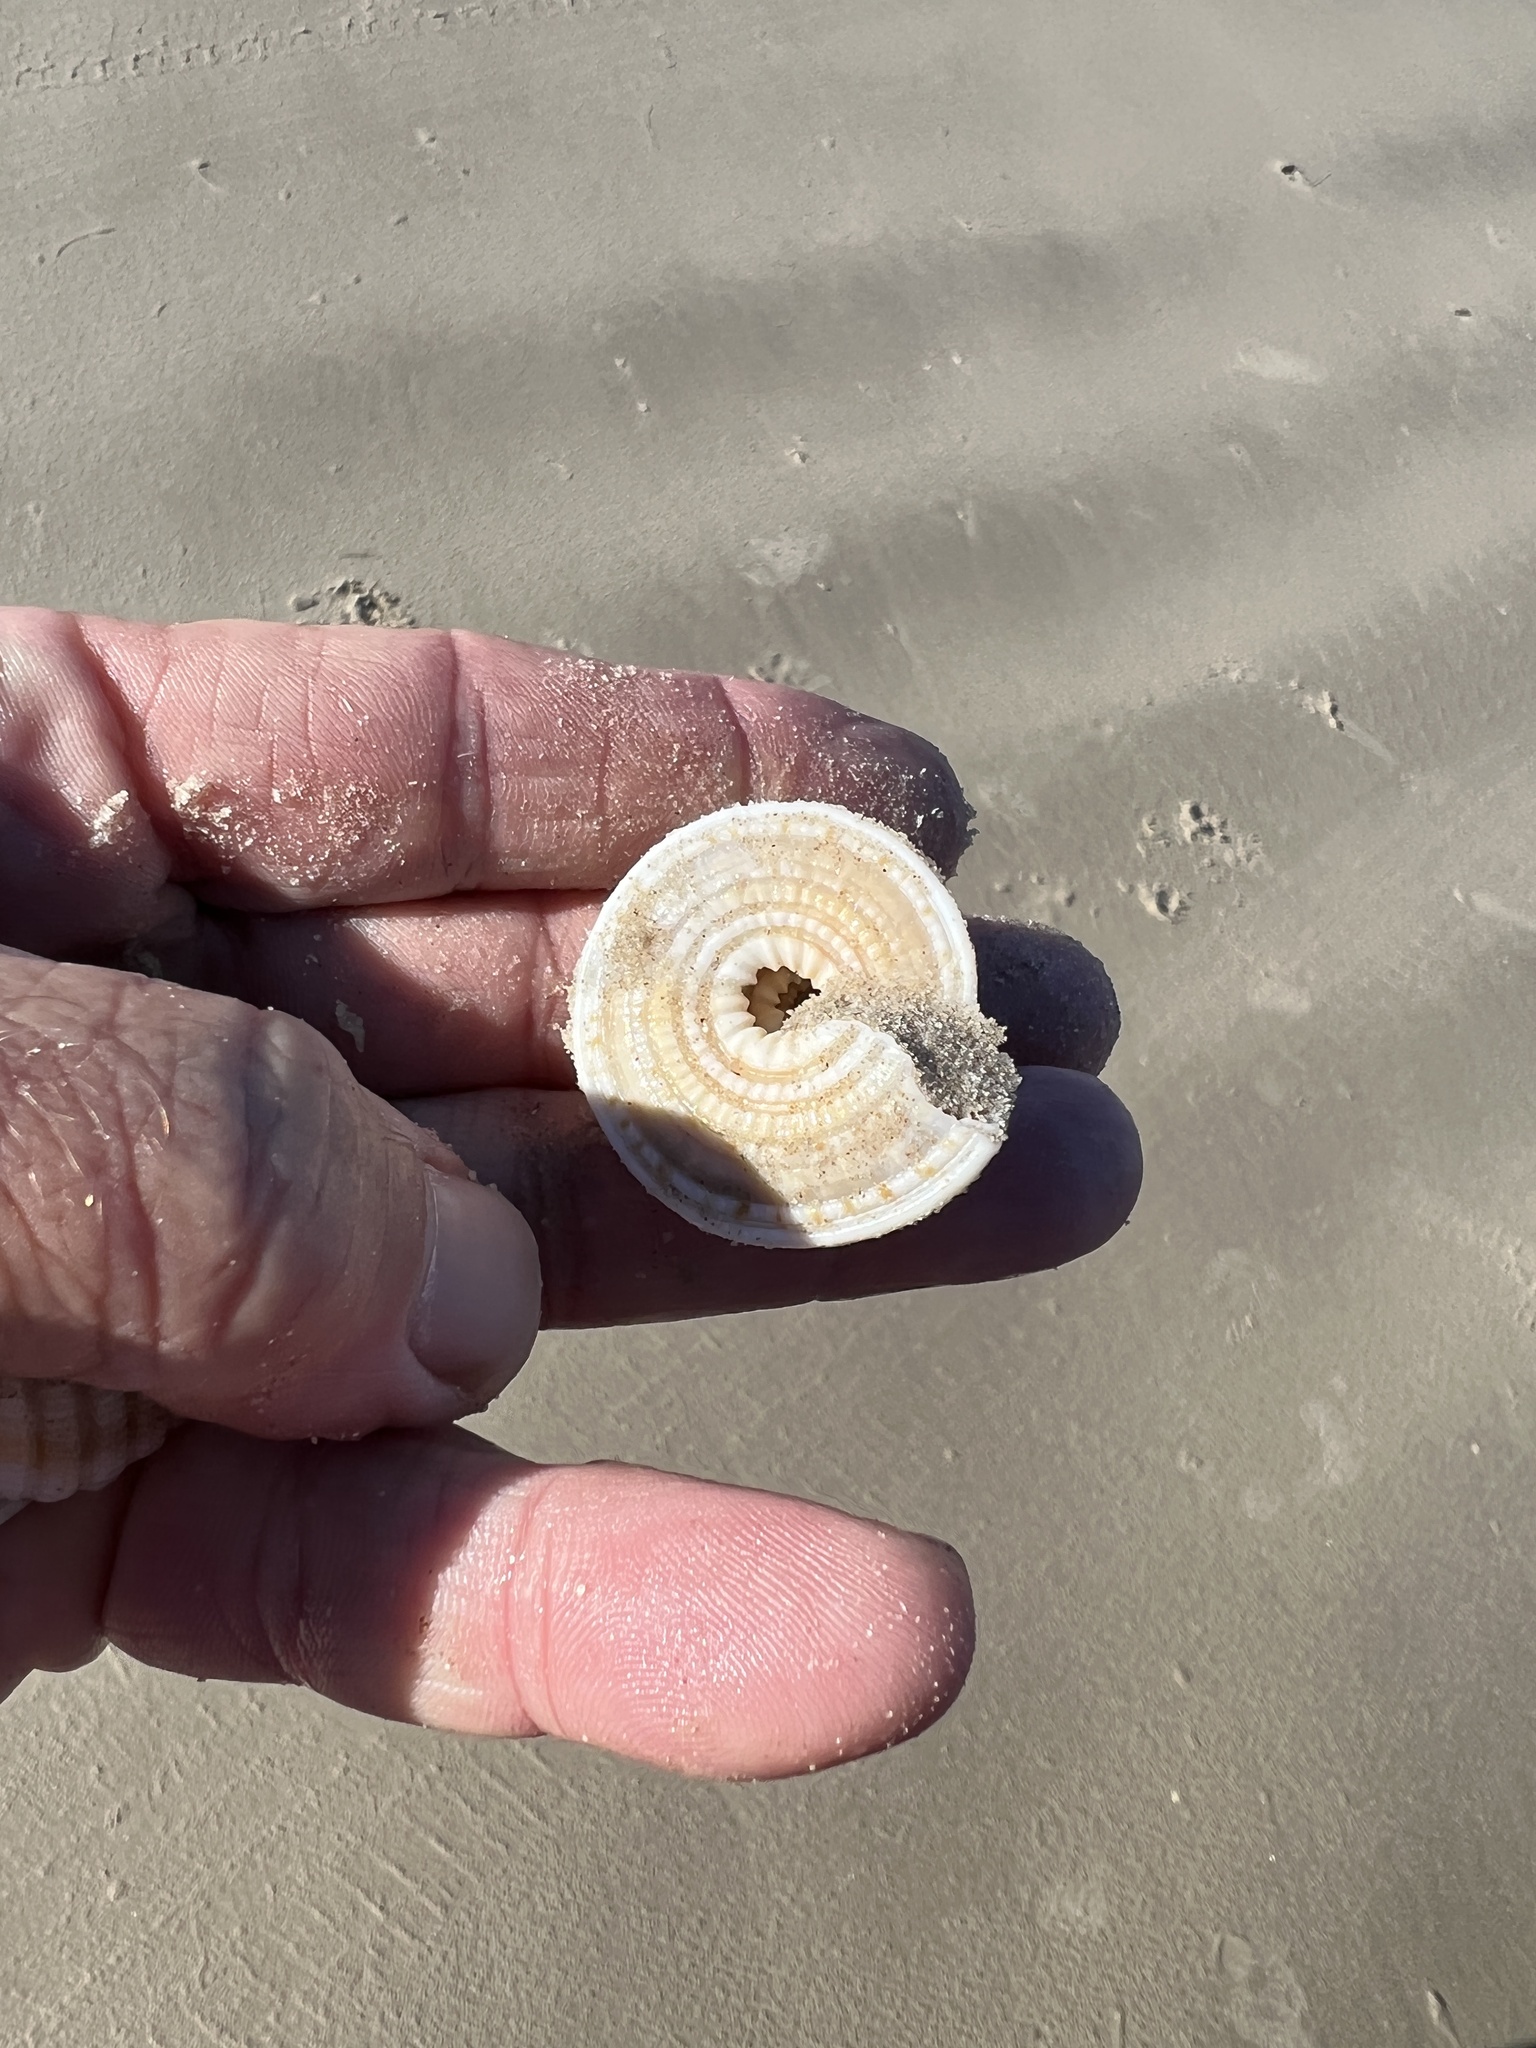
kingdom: Animalia
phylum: Mollusca
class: Gastropoda
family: Architectonicidae
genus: Architectonica
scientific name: Architectonica nobilis
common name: Common sundial
